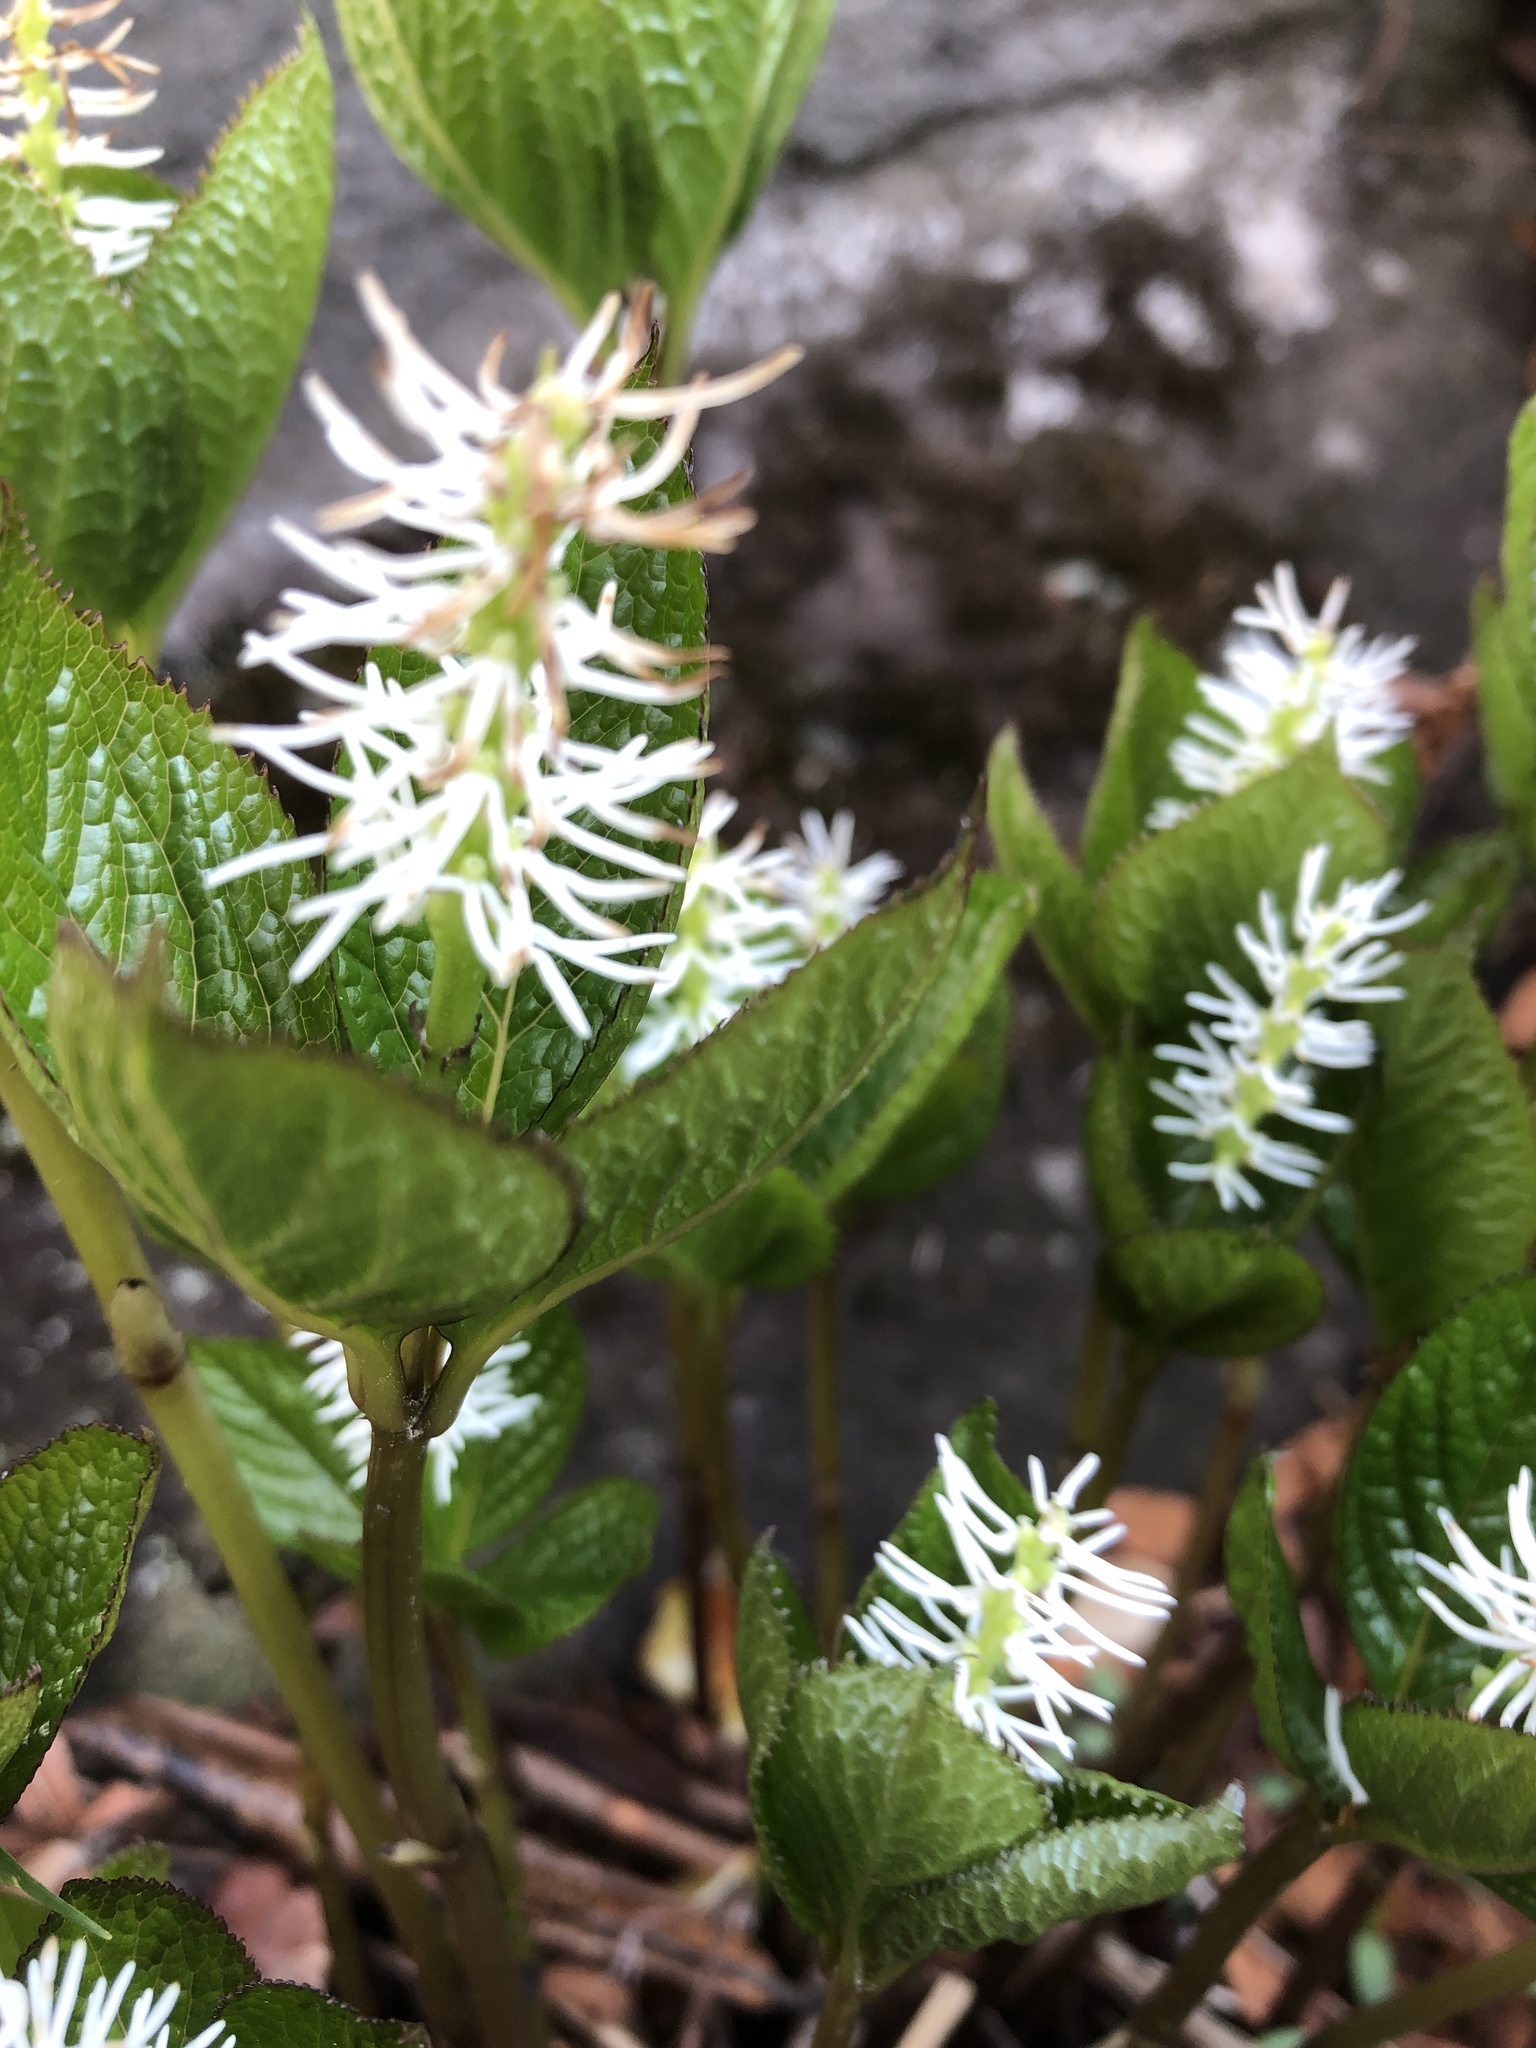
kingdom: Plantae
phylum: Tracheophyta
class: Magnoliopsida
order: Chloranthales
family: Chloranthaceae
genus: Chloranthus
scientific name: Chloranthus quadrifolius
